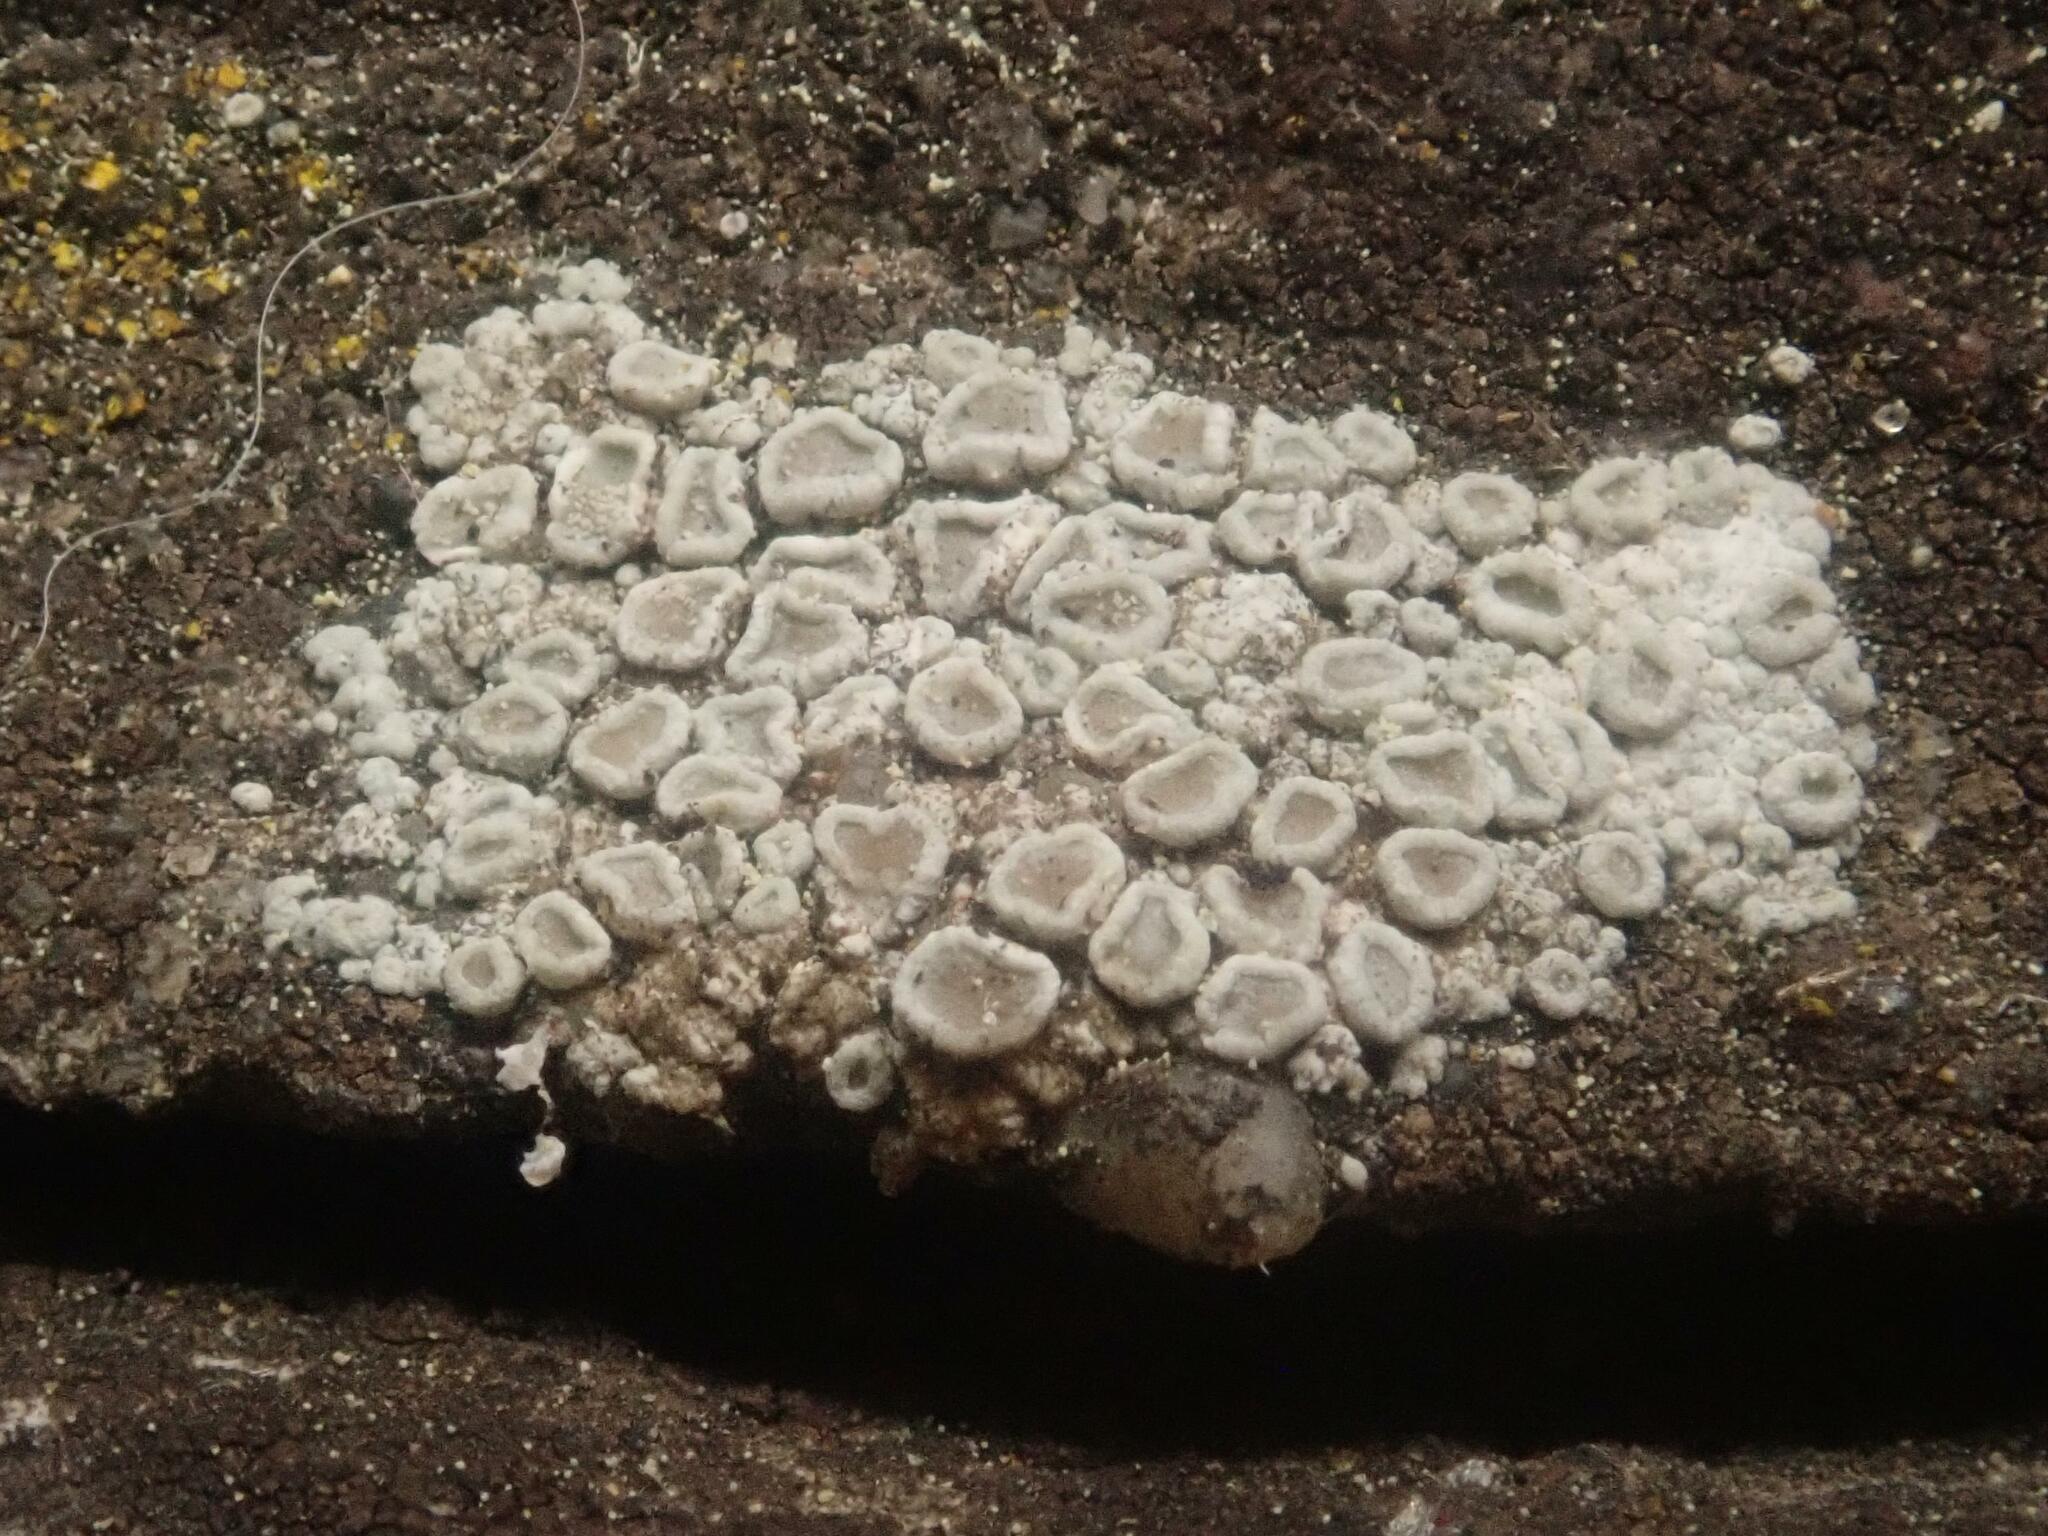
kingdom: Fungi
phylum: Ascomycota
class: Lecanoromycetes
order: Lecanorales
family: Lecanoraceae
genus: Polyozosia
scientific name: Polyozosia albescens
